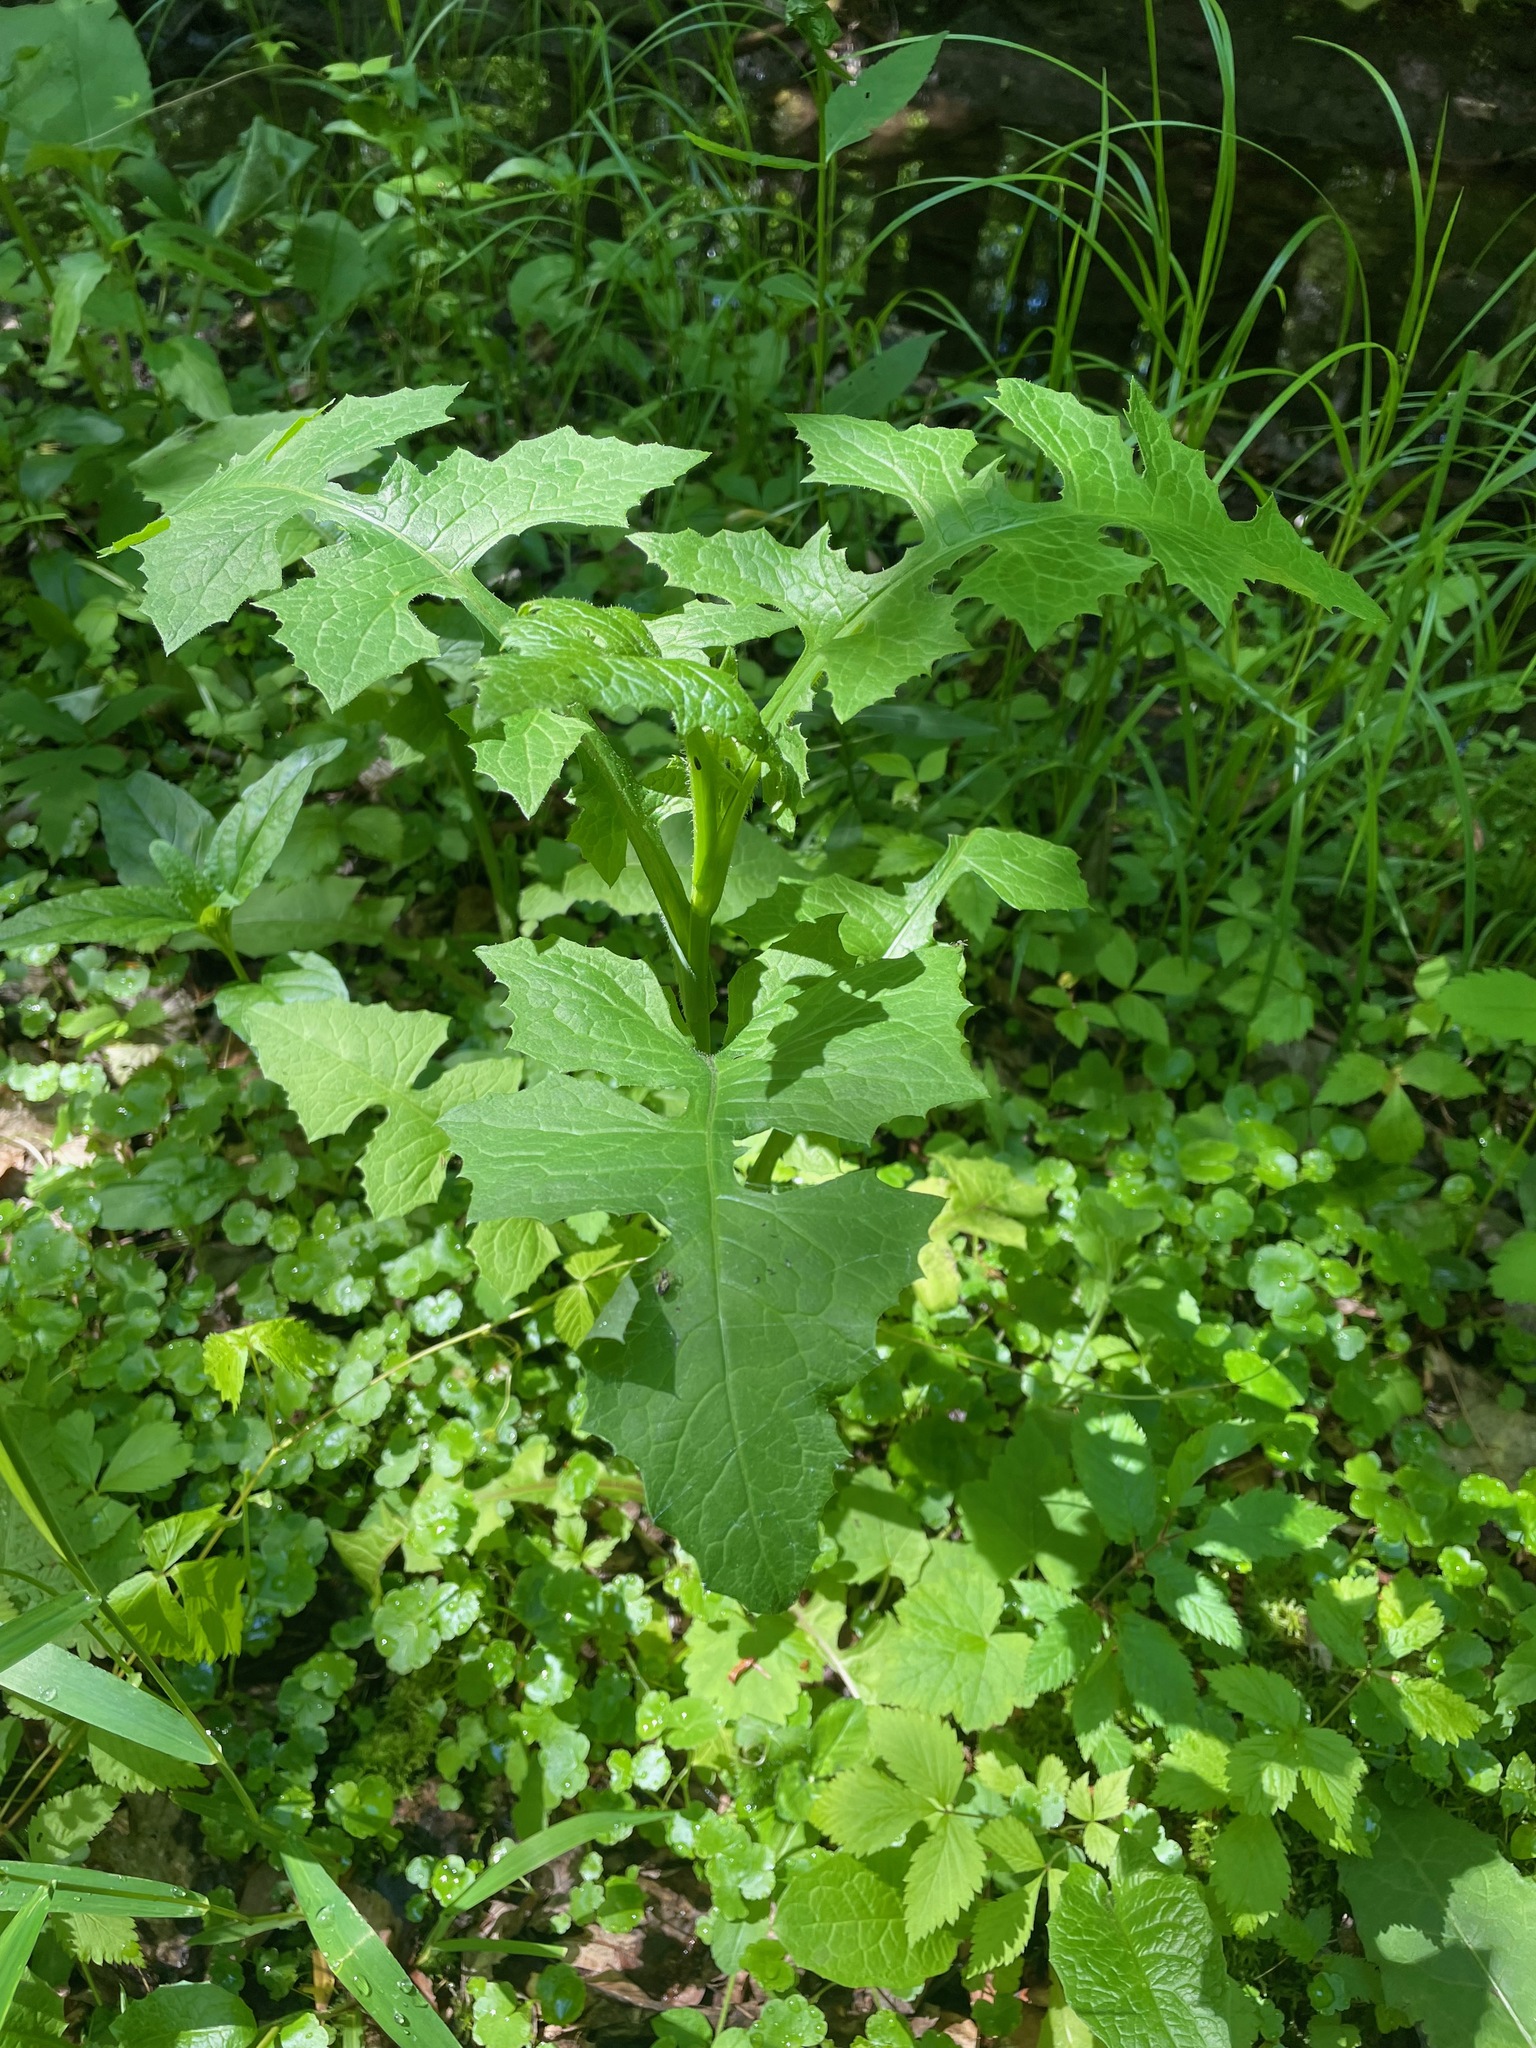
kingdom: Plantae
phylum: Tracheophyta
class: Magnoliopsida
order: Asterales
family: Asteraceae
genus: Lactuca
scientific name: Lactuca biennis
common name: Blue wood lettuce
